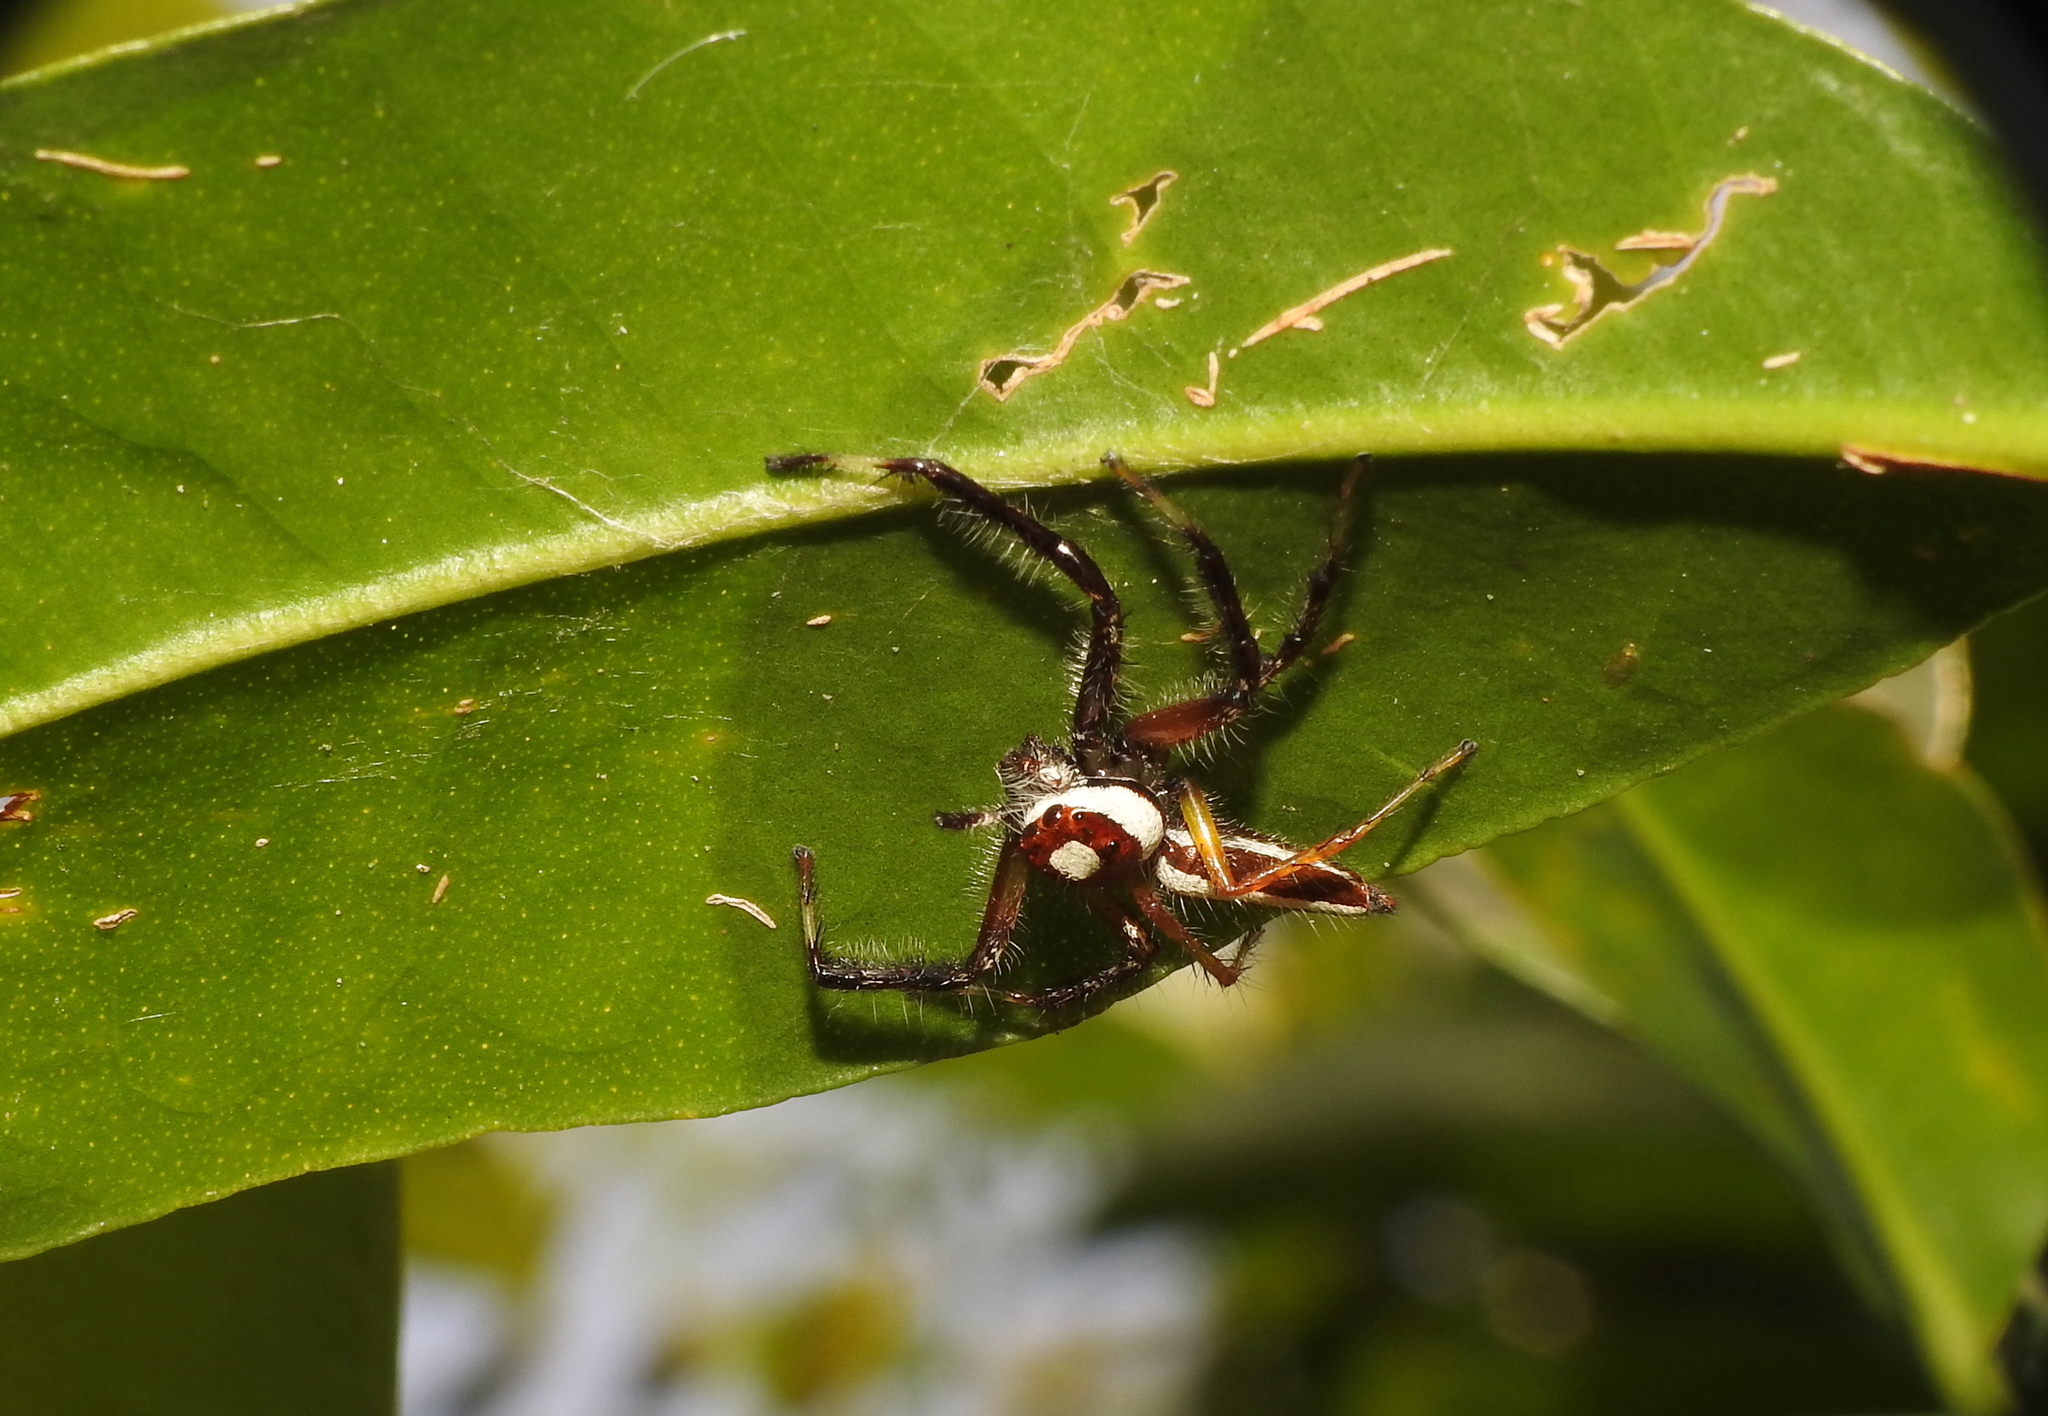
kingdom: Animalia
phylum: Arthropoda
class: Arachnida
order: Araneae
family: Salticidae
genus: Telamonia
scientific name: Telamonia dimidiata
